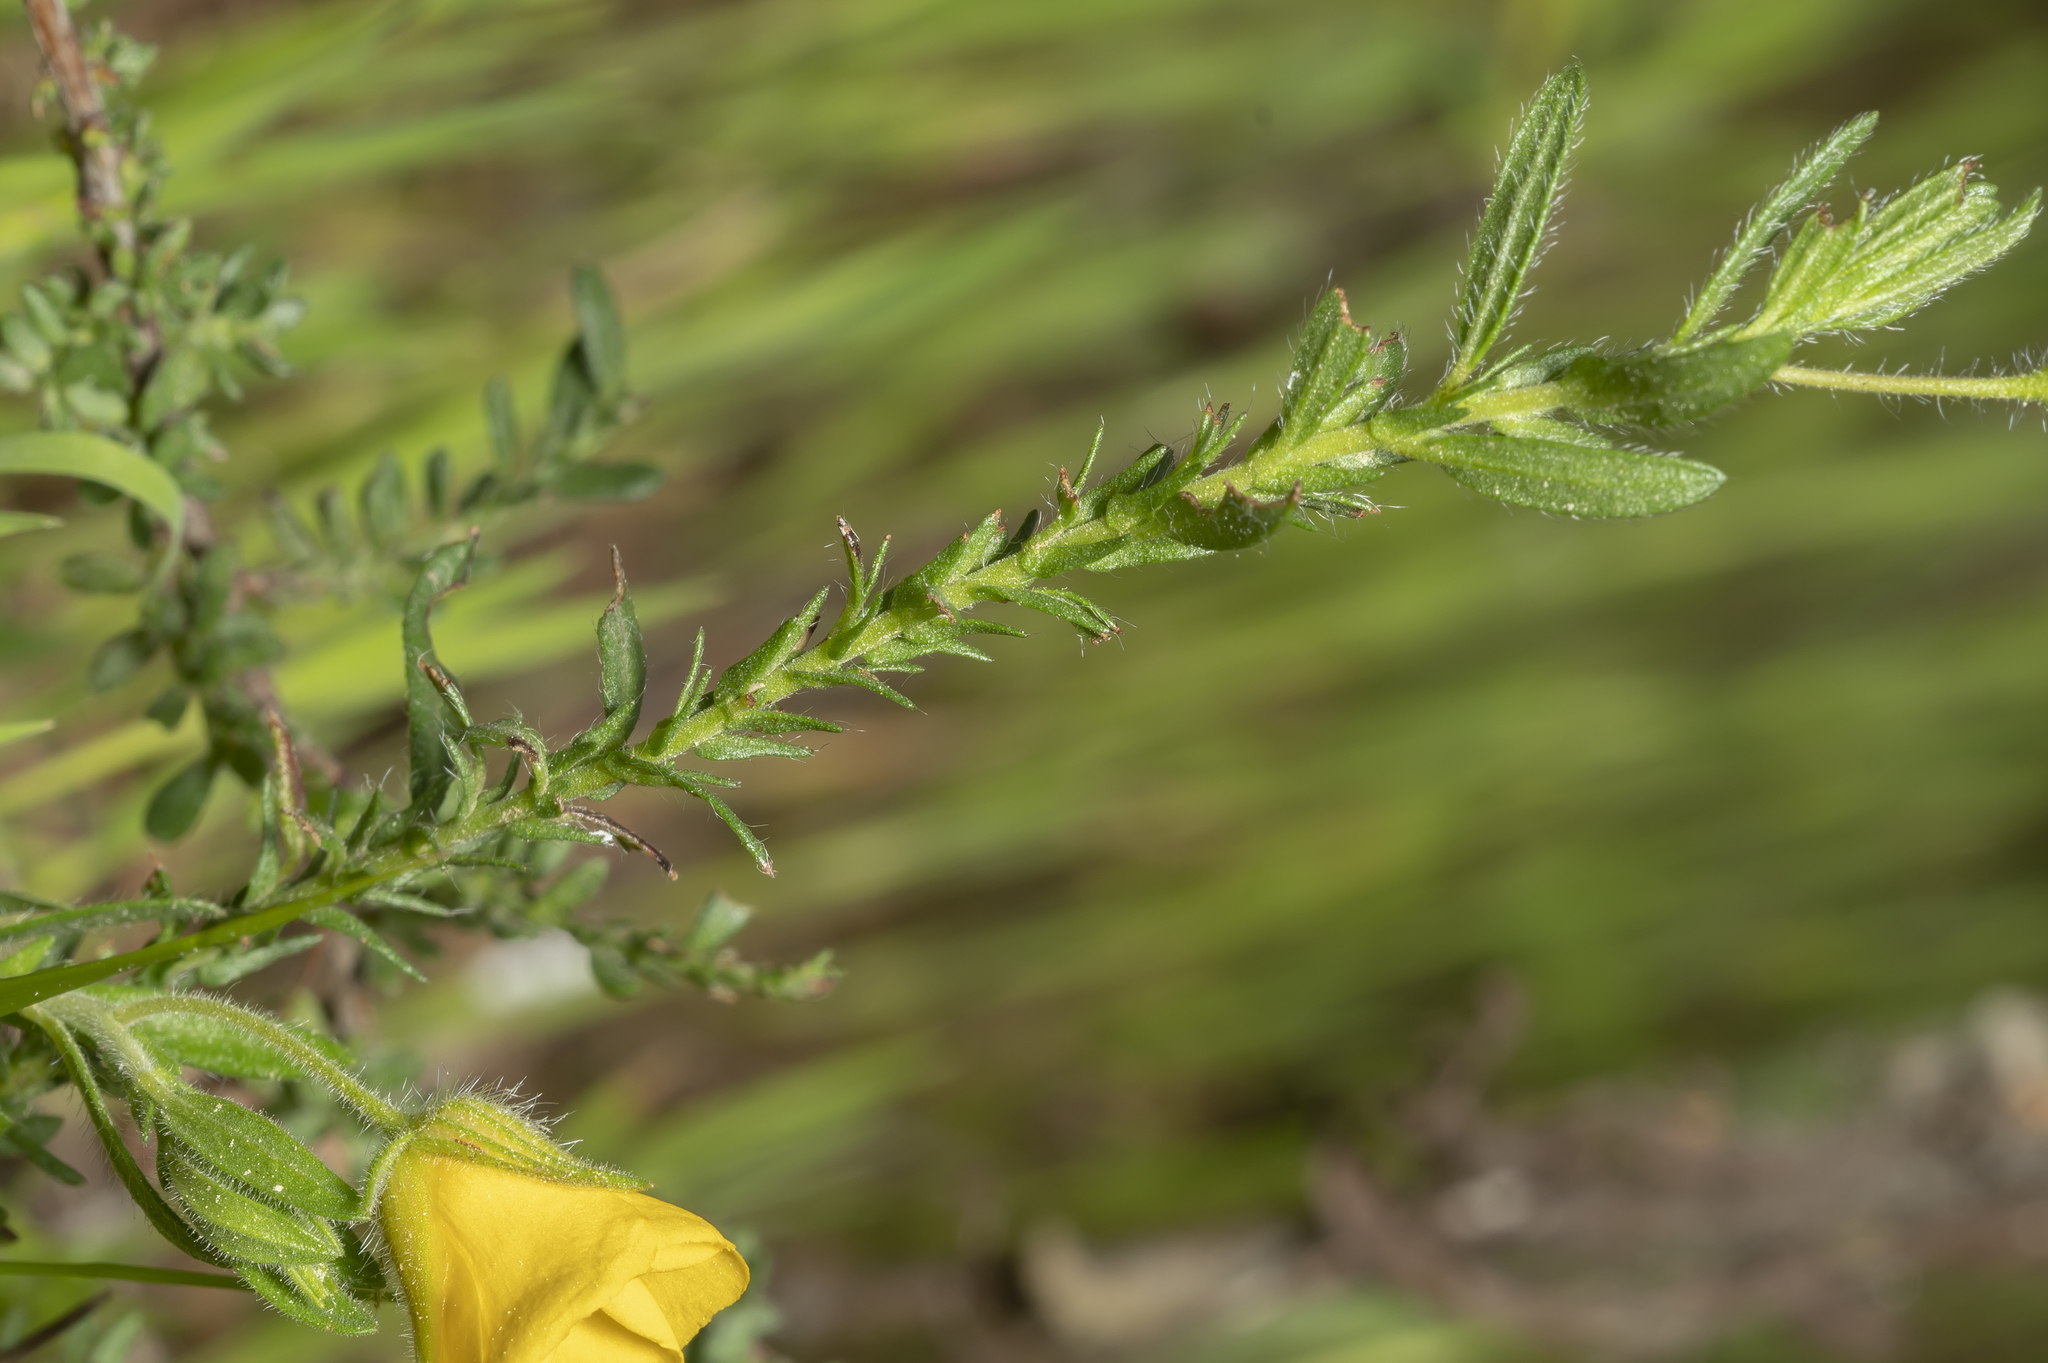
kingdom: Plantae
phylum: Tracheophyta
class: Magnoliopsida
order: Malvales
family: Cistaceae
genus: Fumana
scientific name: Fumana thymifolia
